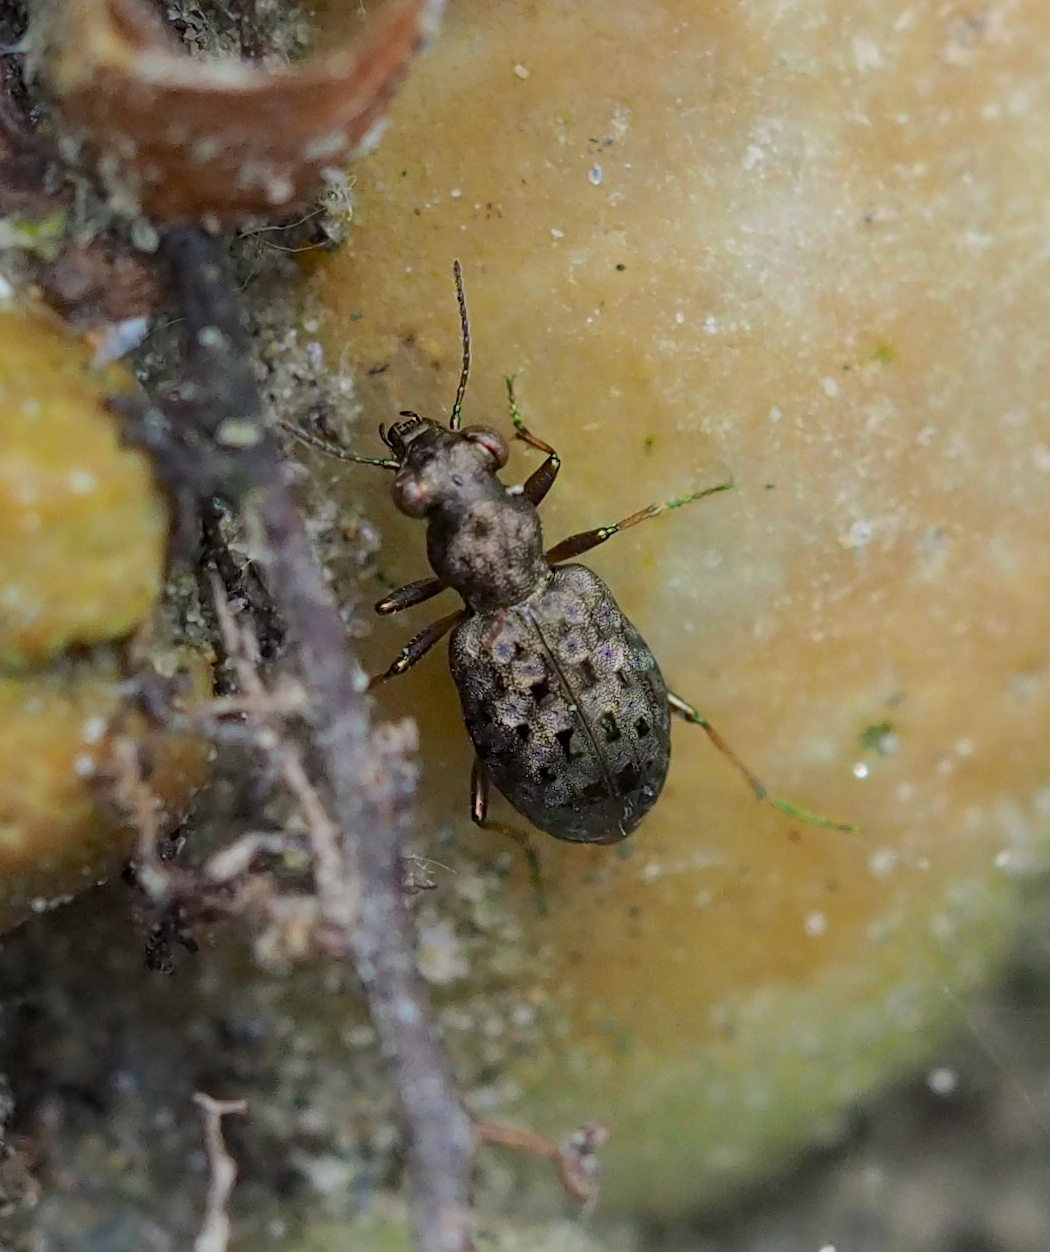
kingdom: Animalia
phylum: Arthropoda
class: Insecta
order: Coleoptera
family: Carabidae
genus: Elaphrus
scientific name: Elaphrus aureus
